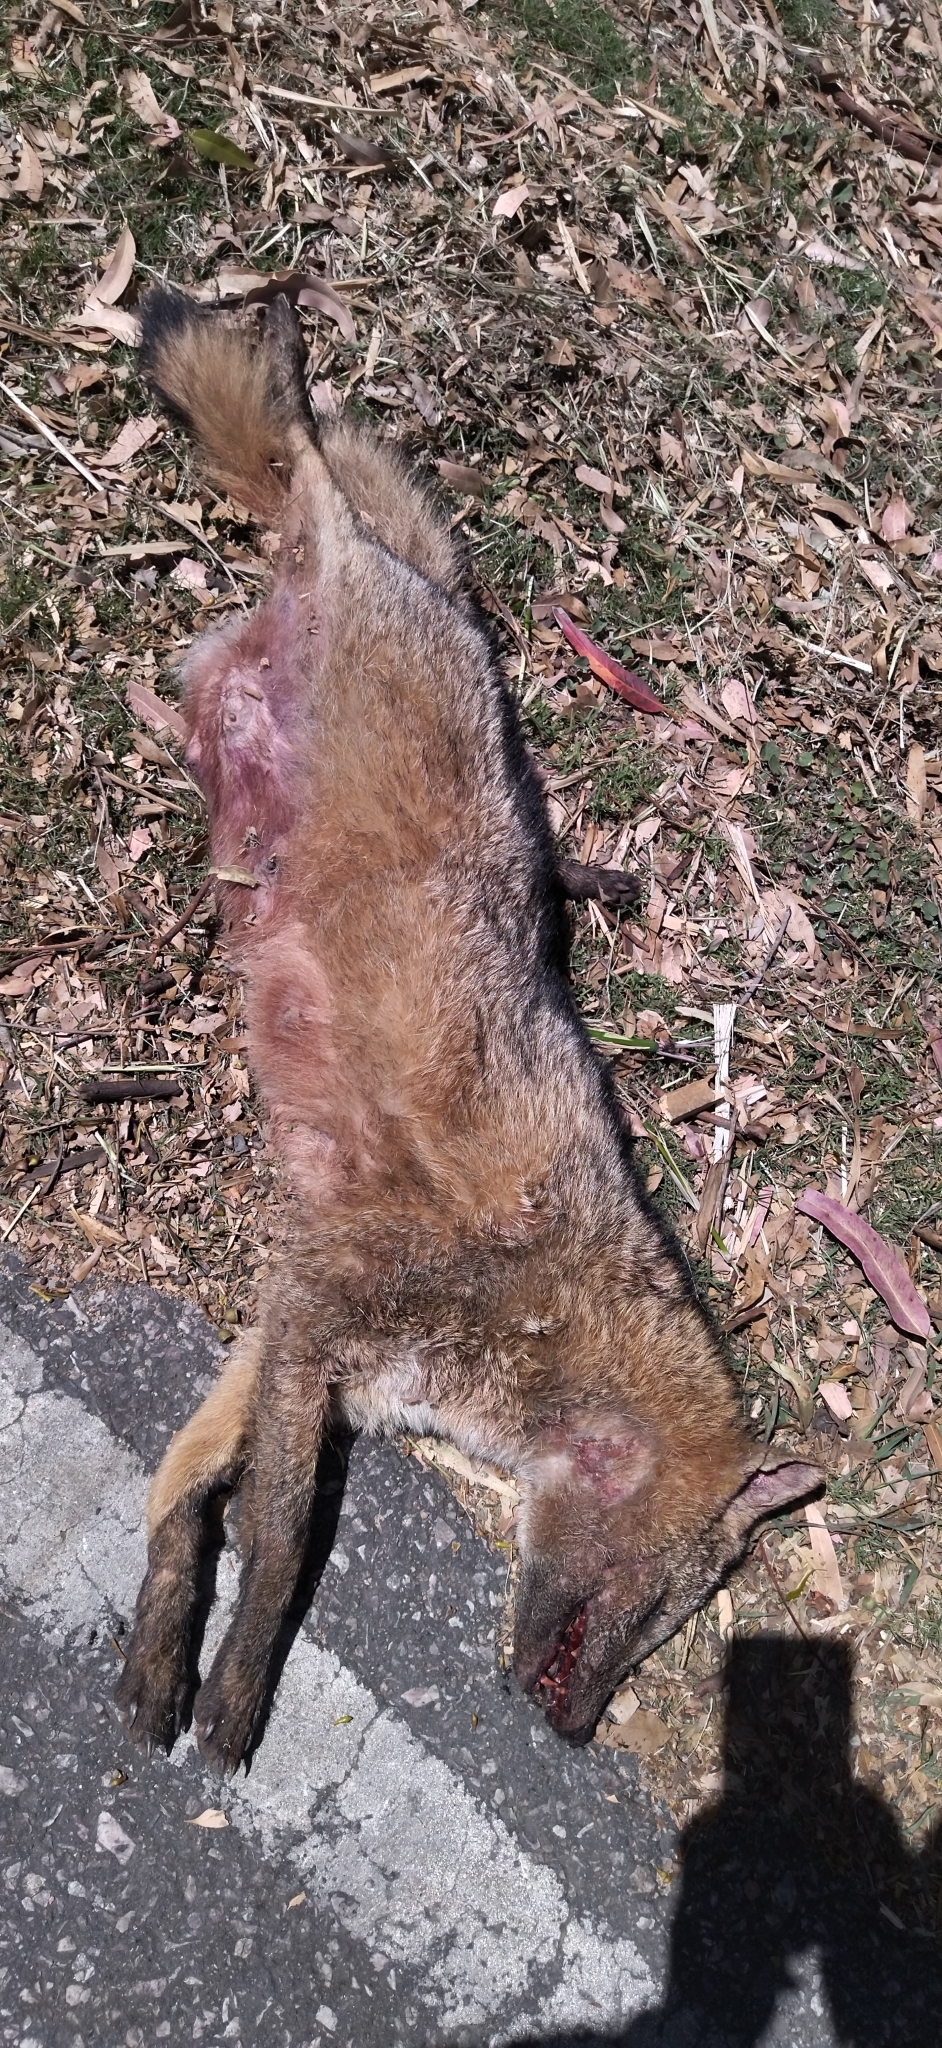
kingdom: Animalia
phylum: Chordata
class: Mammalia
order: Carnivora
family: Canidae
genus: Cerdocyon
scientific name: Cerdocyon thous
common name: Crab-eating fox
